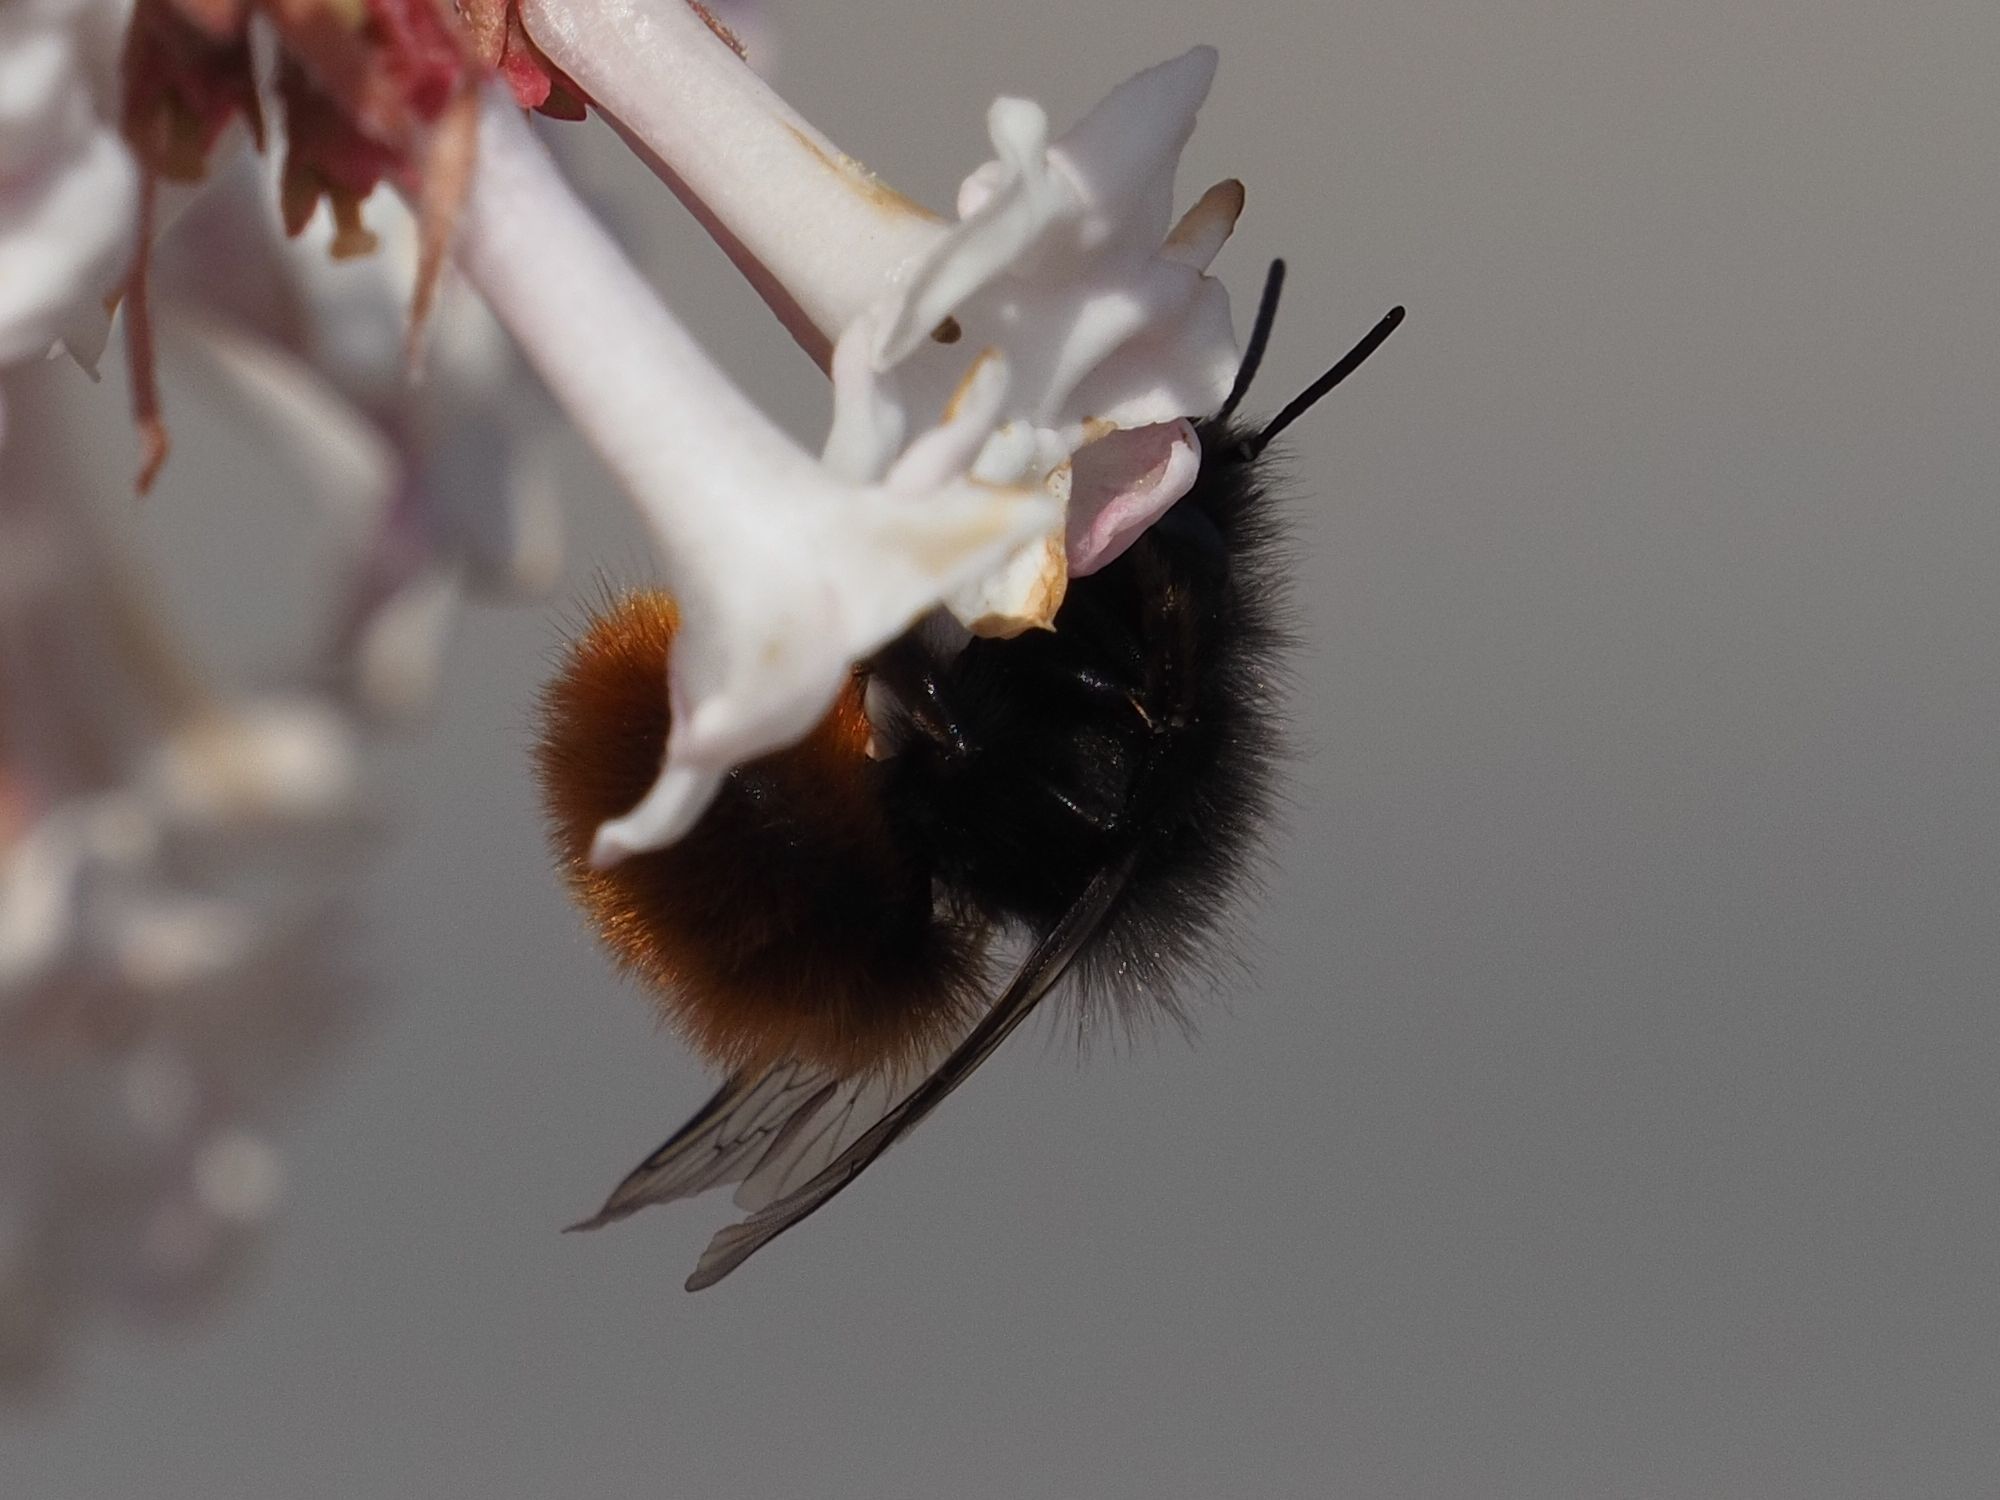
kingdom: Animalia
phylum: Arthropoda
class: Insecta
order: Hymenoptera
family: Megachilidae
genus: Osmia
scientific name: Osmia cornuta
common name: Mason bee
